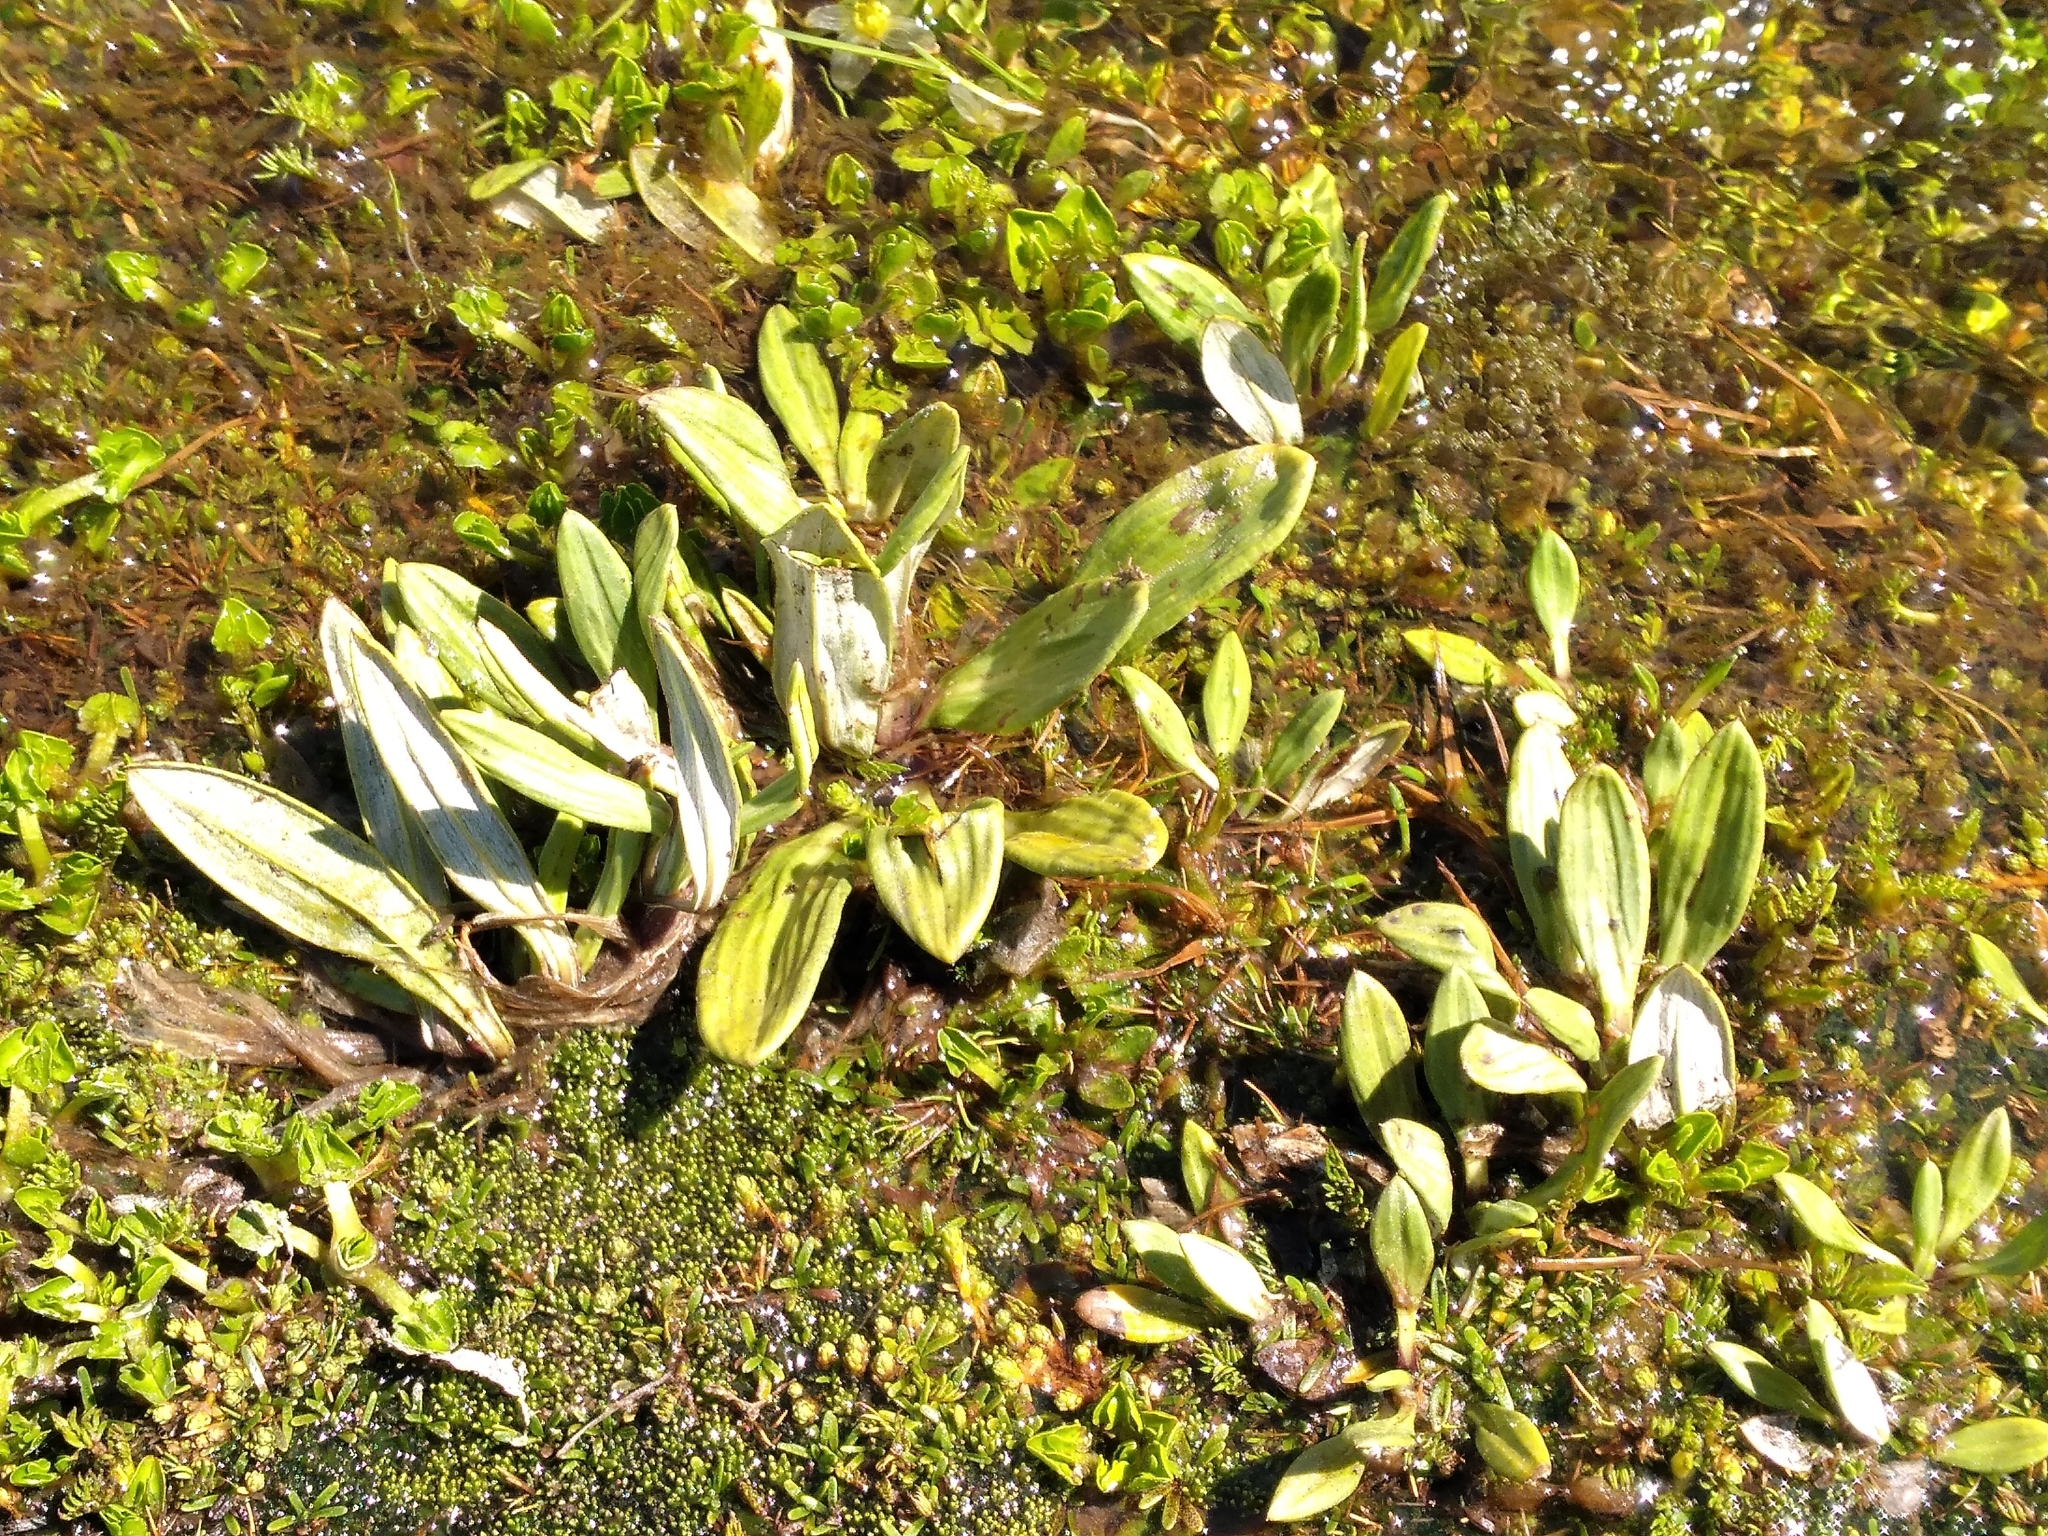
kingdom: Plantae
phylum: Tracheophyta
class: Magnoliopsida
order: Asterales
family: Asteraceae
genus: Celmisia
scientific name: Celmisia haastii
